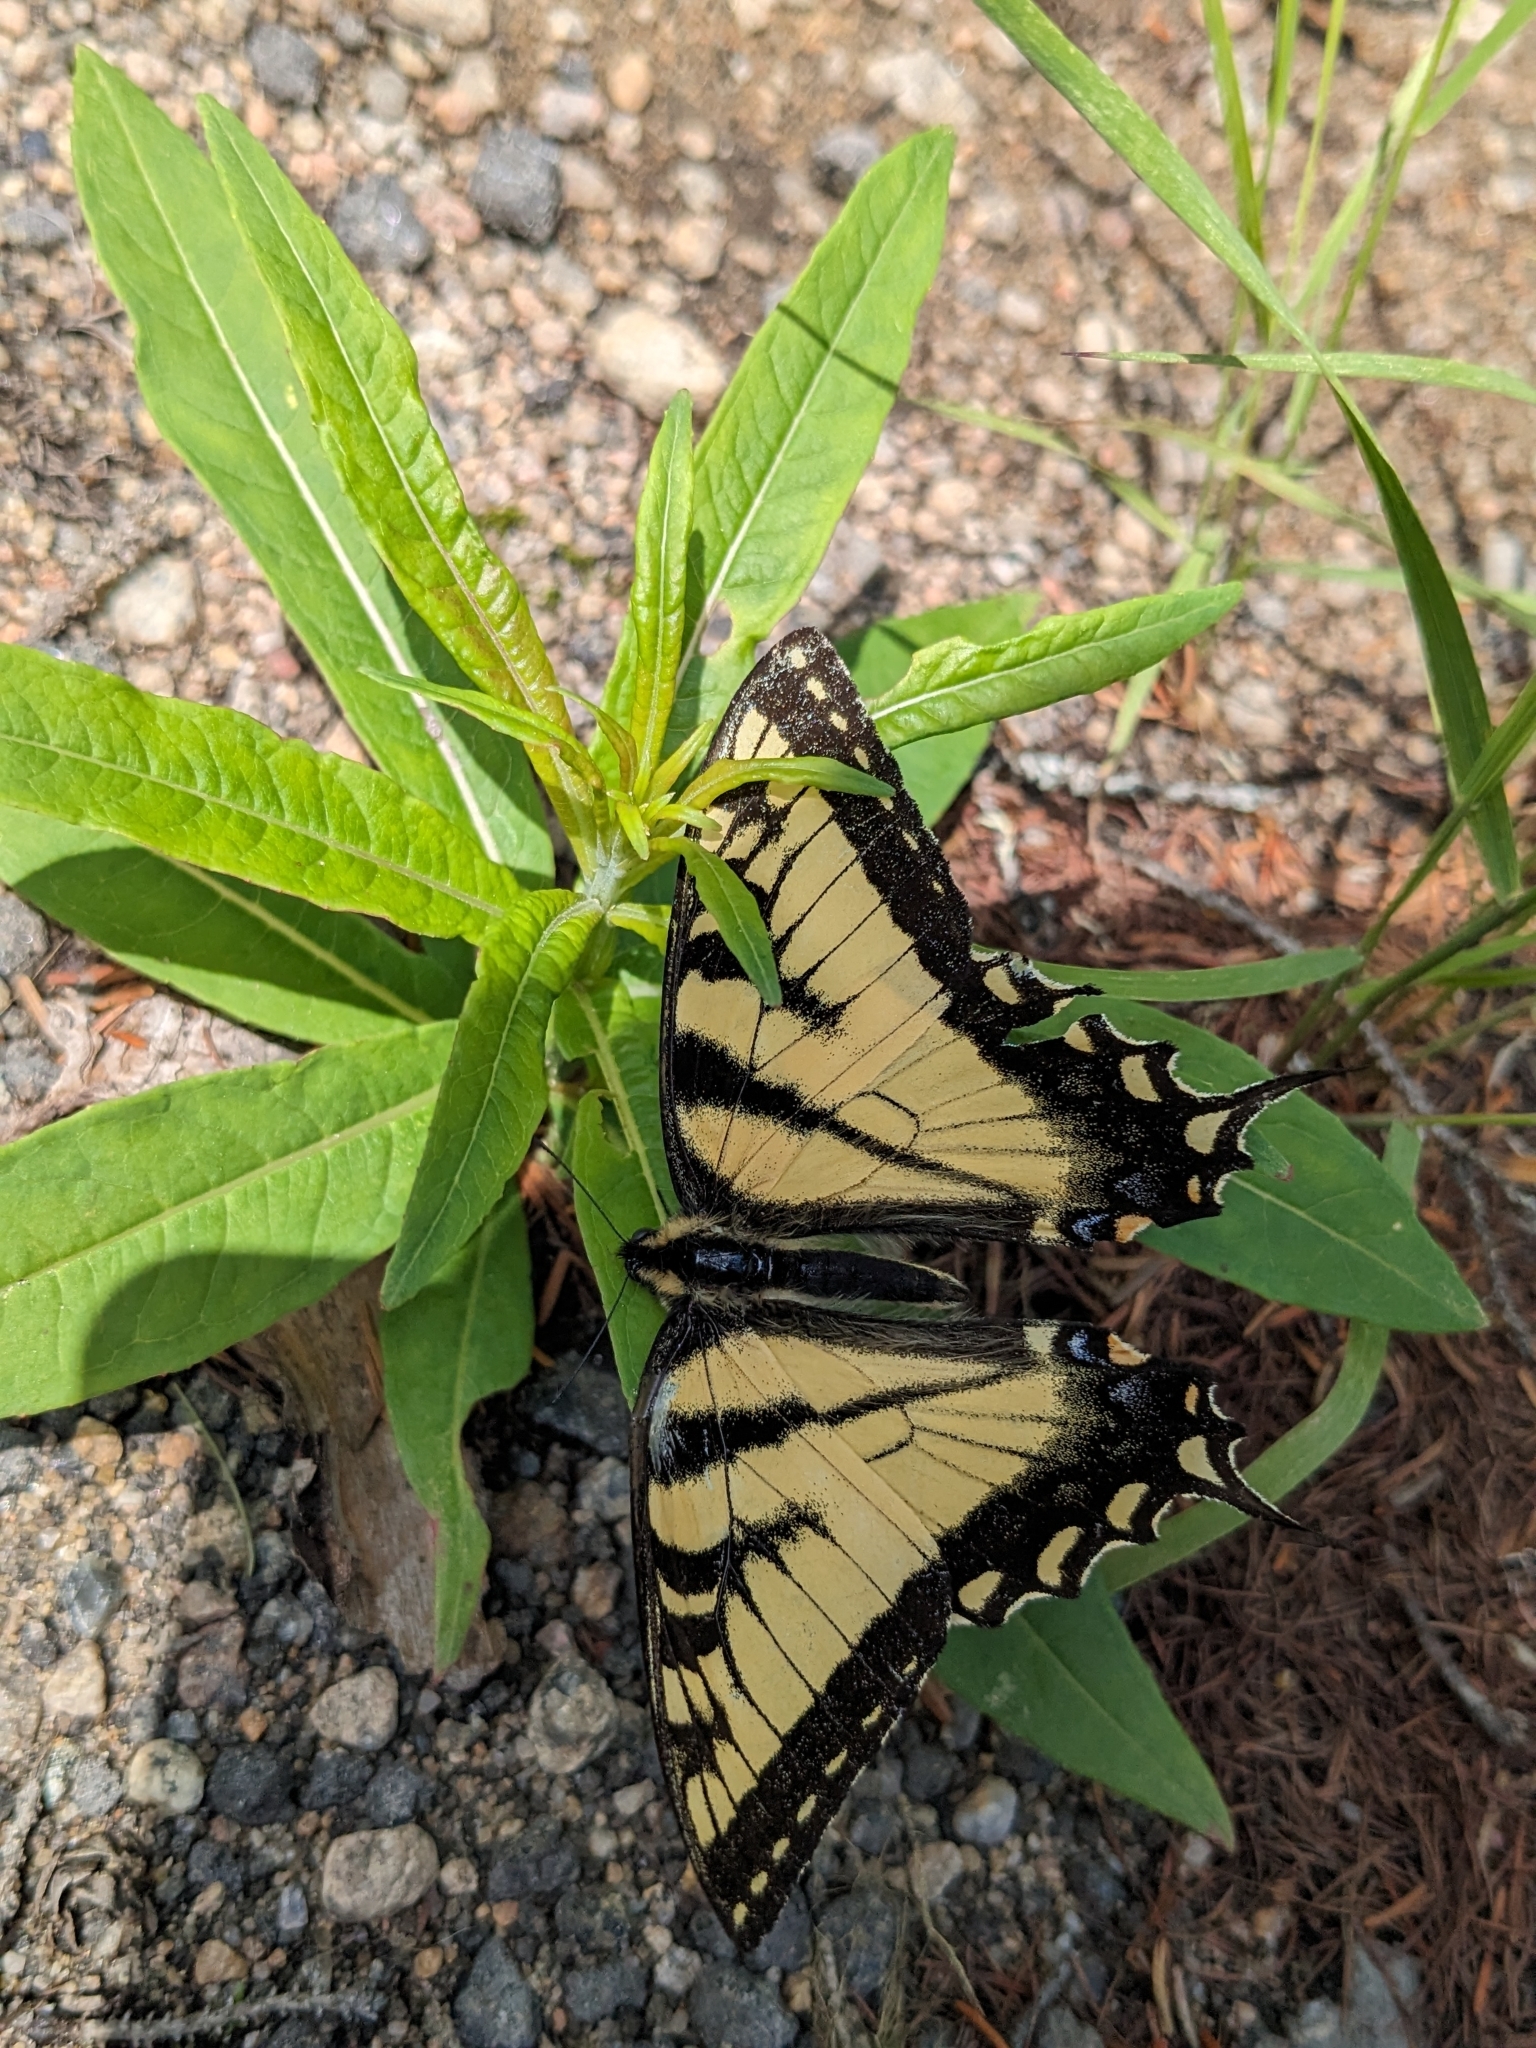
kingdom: Animalia
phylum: Arthropoda
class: Insecta
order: Lepidoptera
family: Papilionidae
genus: Papilio
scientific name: Papilio canadensis
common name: Canadian tiger swallowtail
